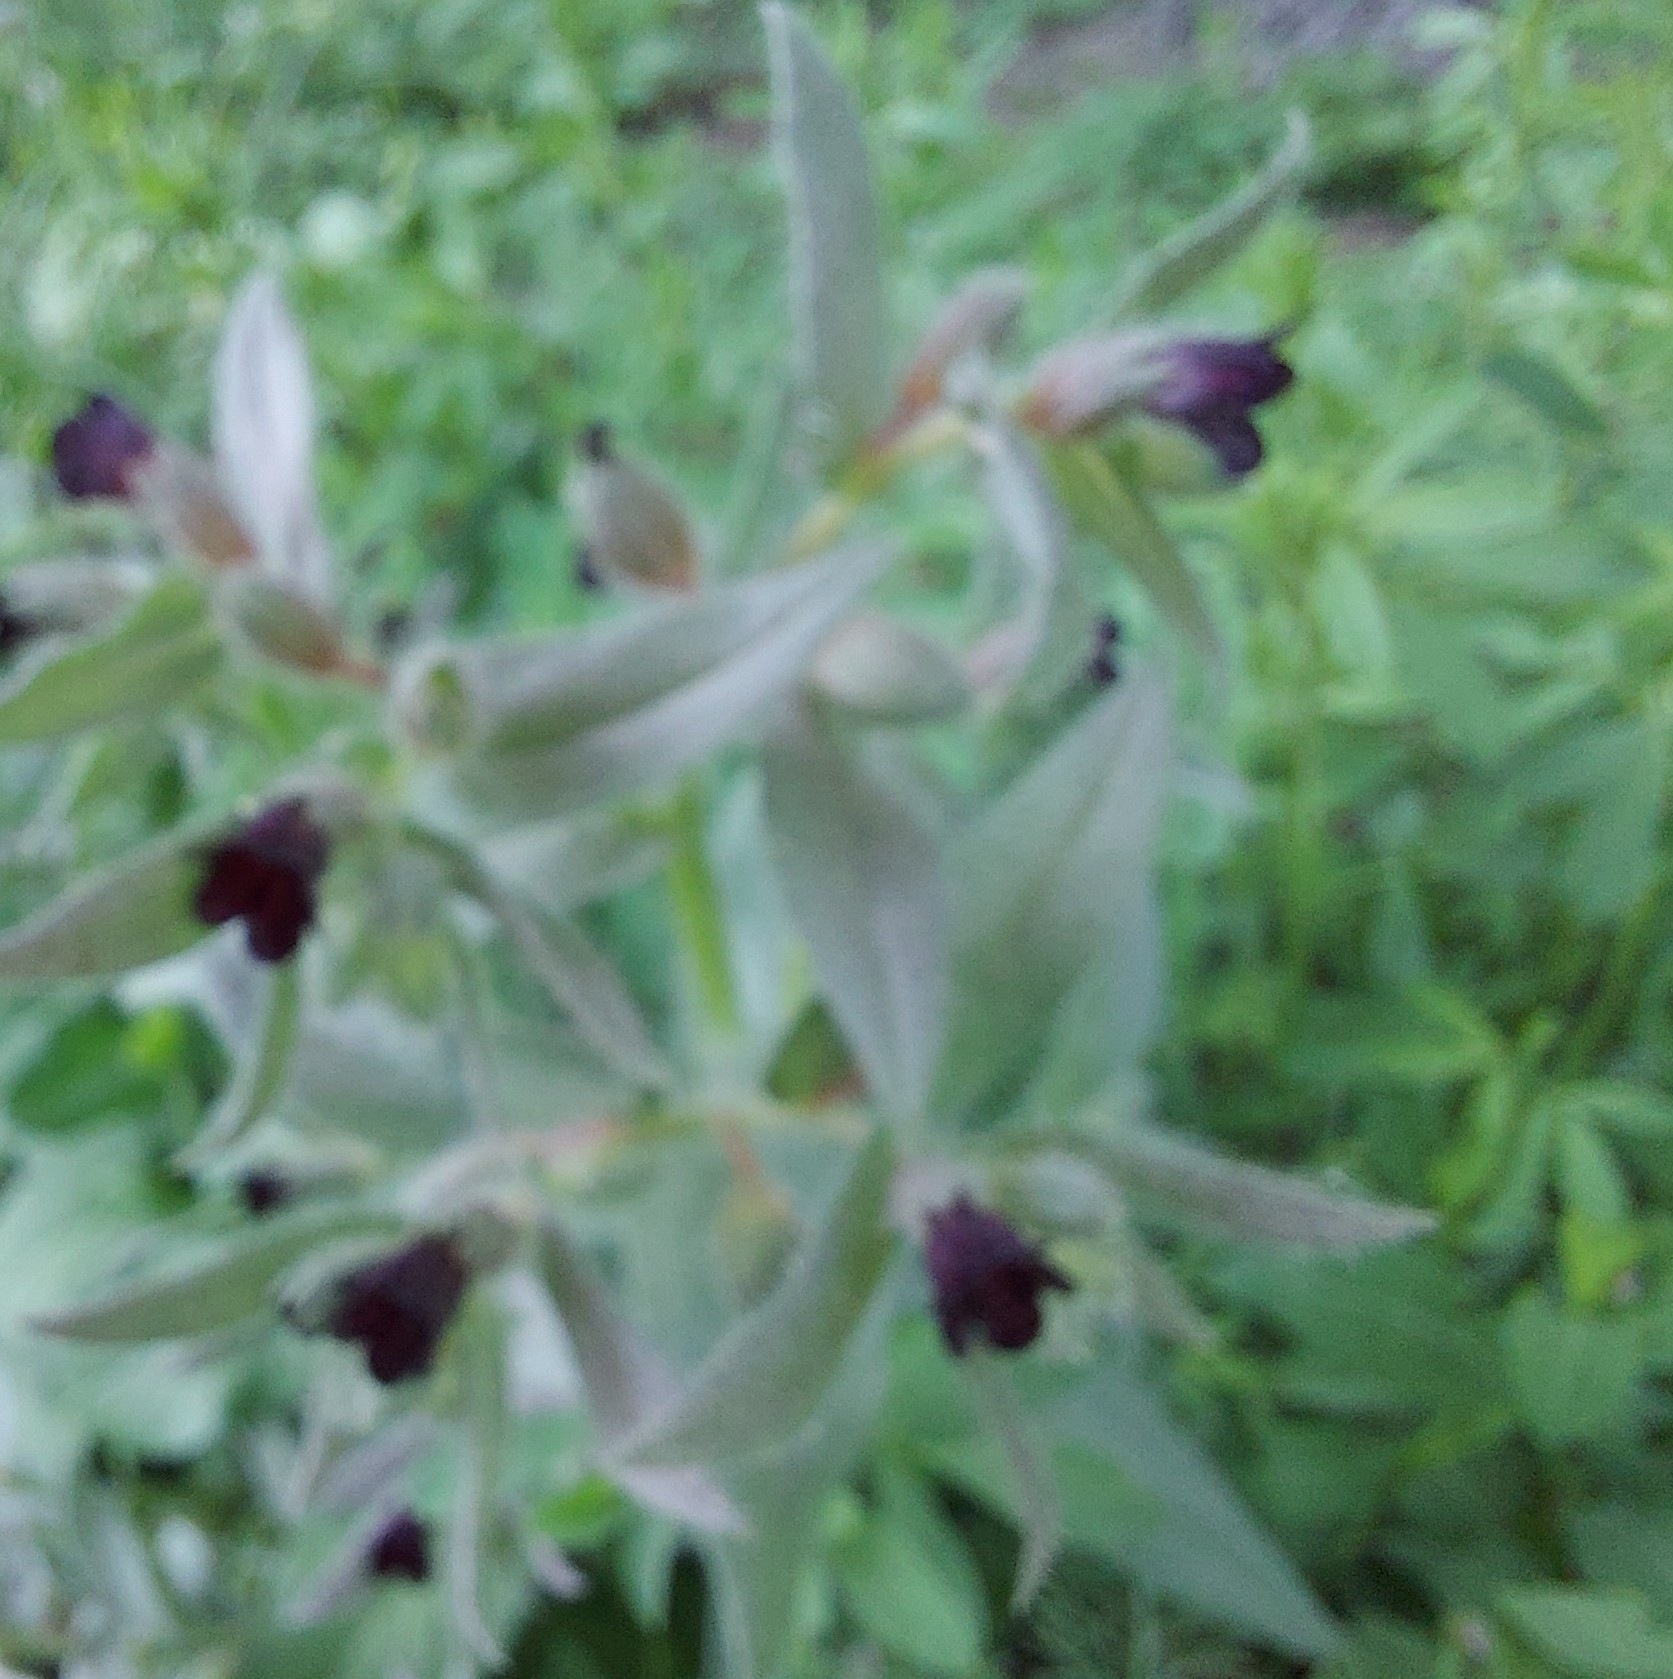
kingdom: Plantae
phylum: Tracheophyta
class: Magnoliopsida
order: Boraginales
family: Boraginaceae
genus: Nonea
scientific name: Nonea pulla
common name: Brown nonea
